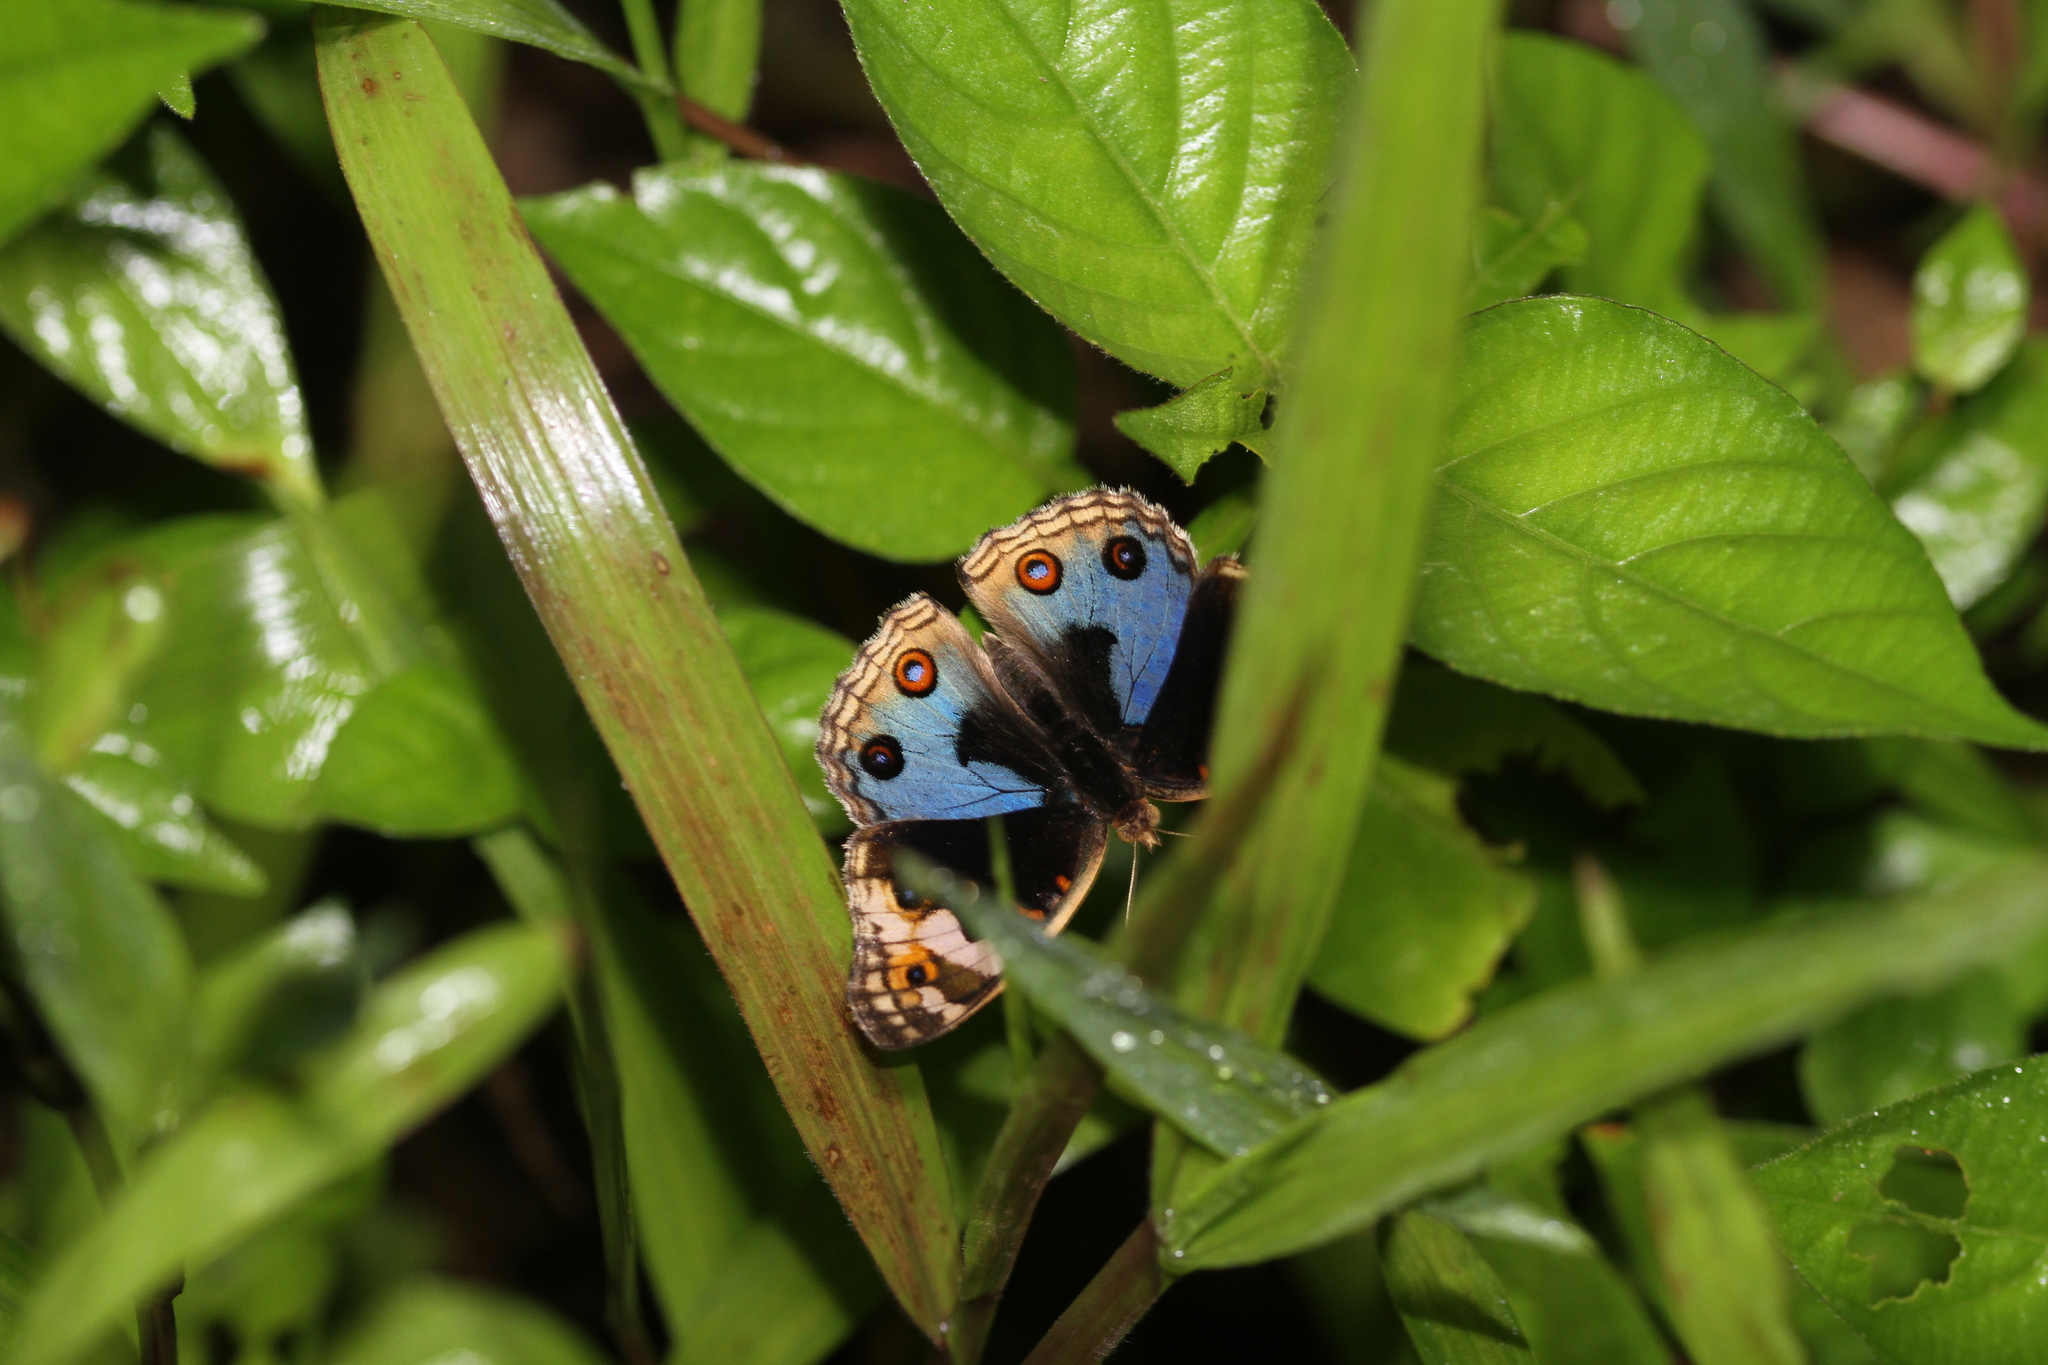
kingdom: Animalia
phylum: Arthropoda
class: Insecta
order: Lepidoptera
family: Nymphalidae
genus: Junonia
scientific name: Junonia orithya
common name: Blue pansy
